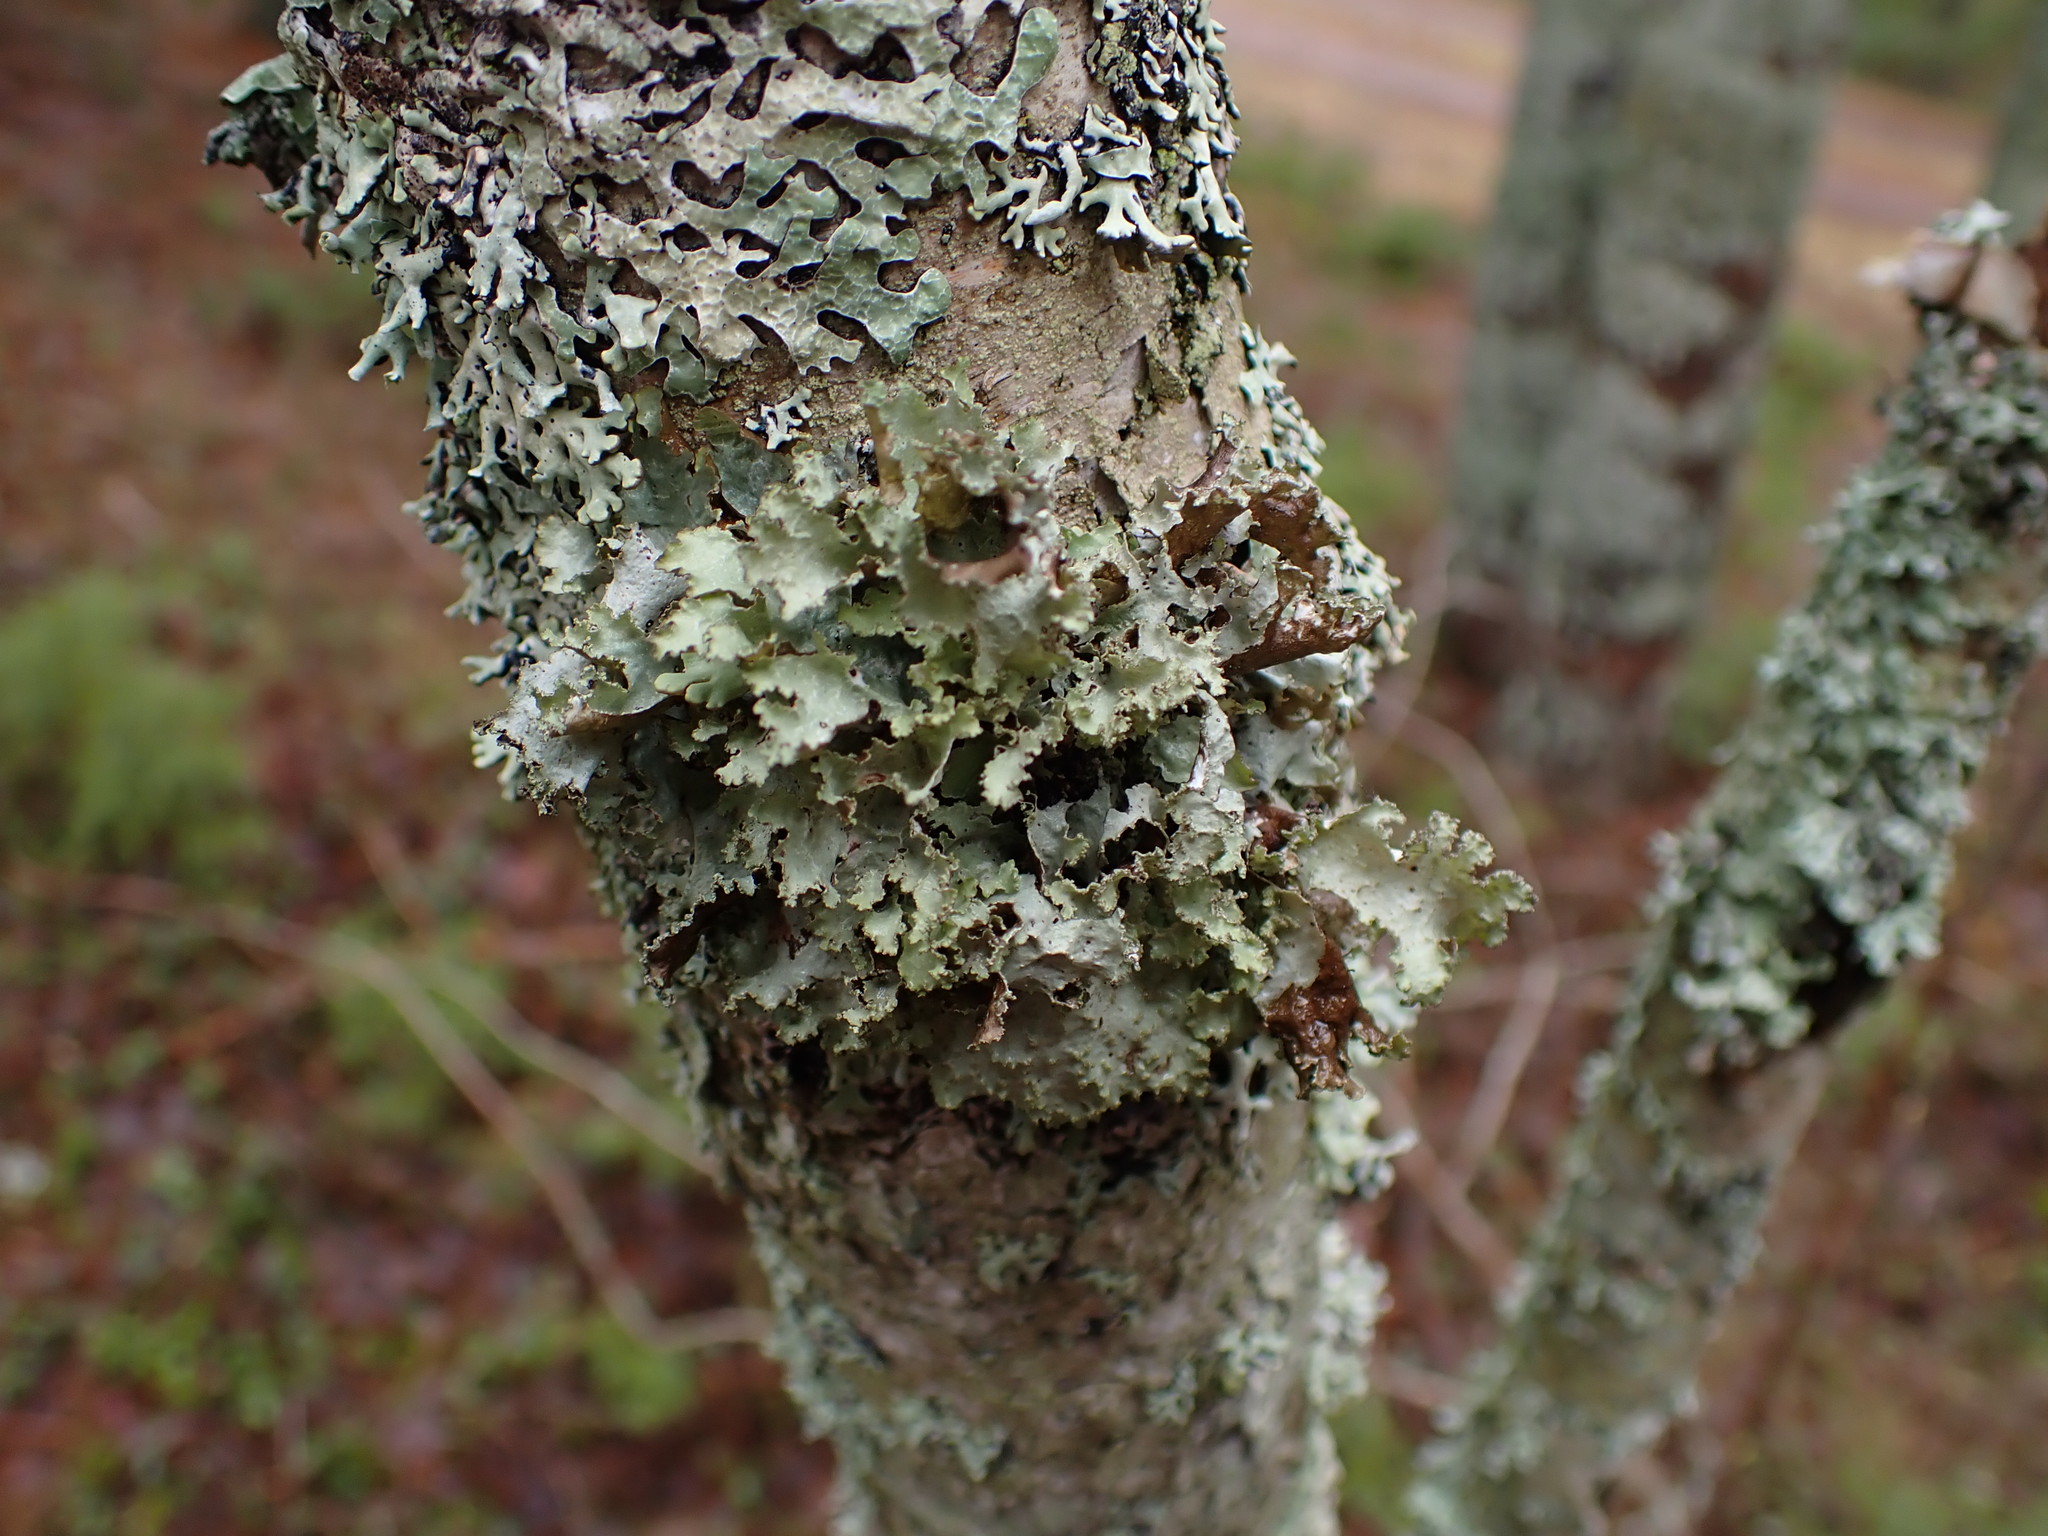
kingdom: Fungi
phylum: Ascomycota
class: Lecanoromycetes
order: Lecanorales
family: Parmeliaceae
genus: Platismatia
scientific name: Platismatia glauca
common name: Varied rag lichen
